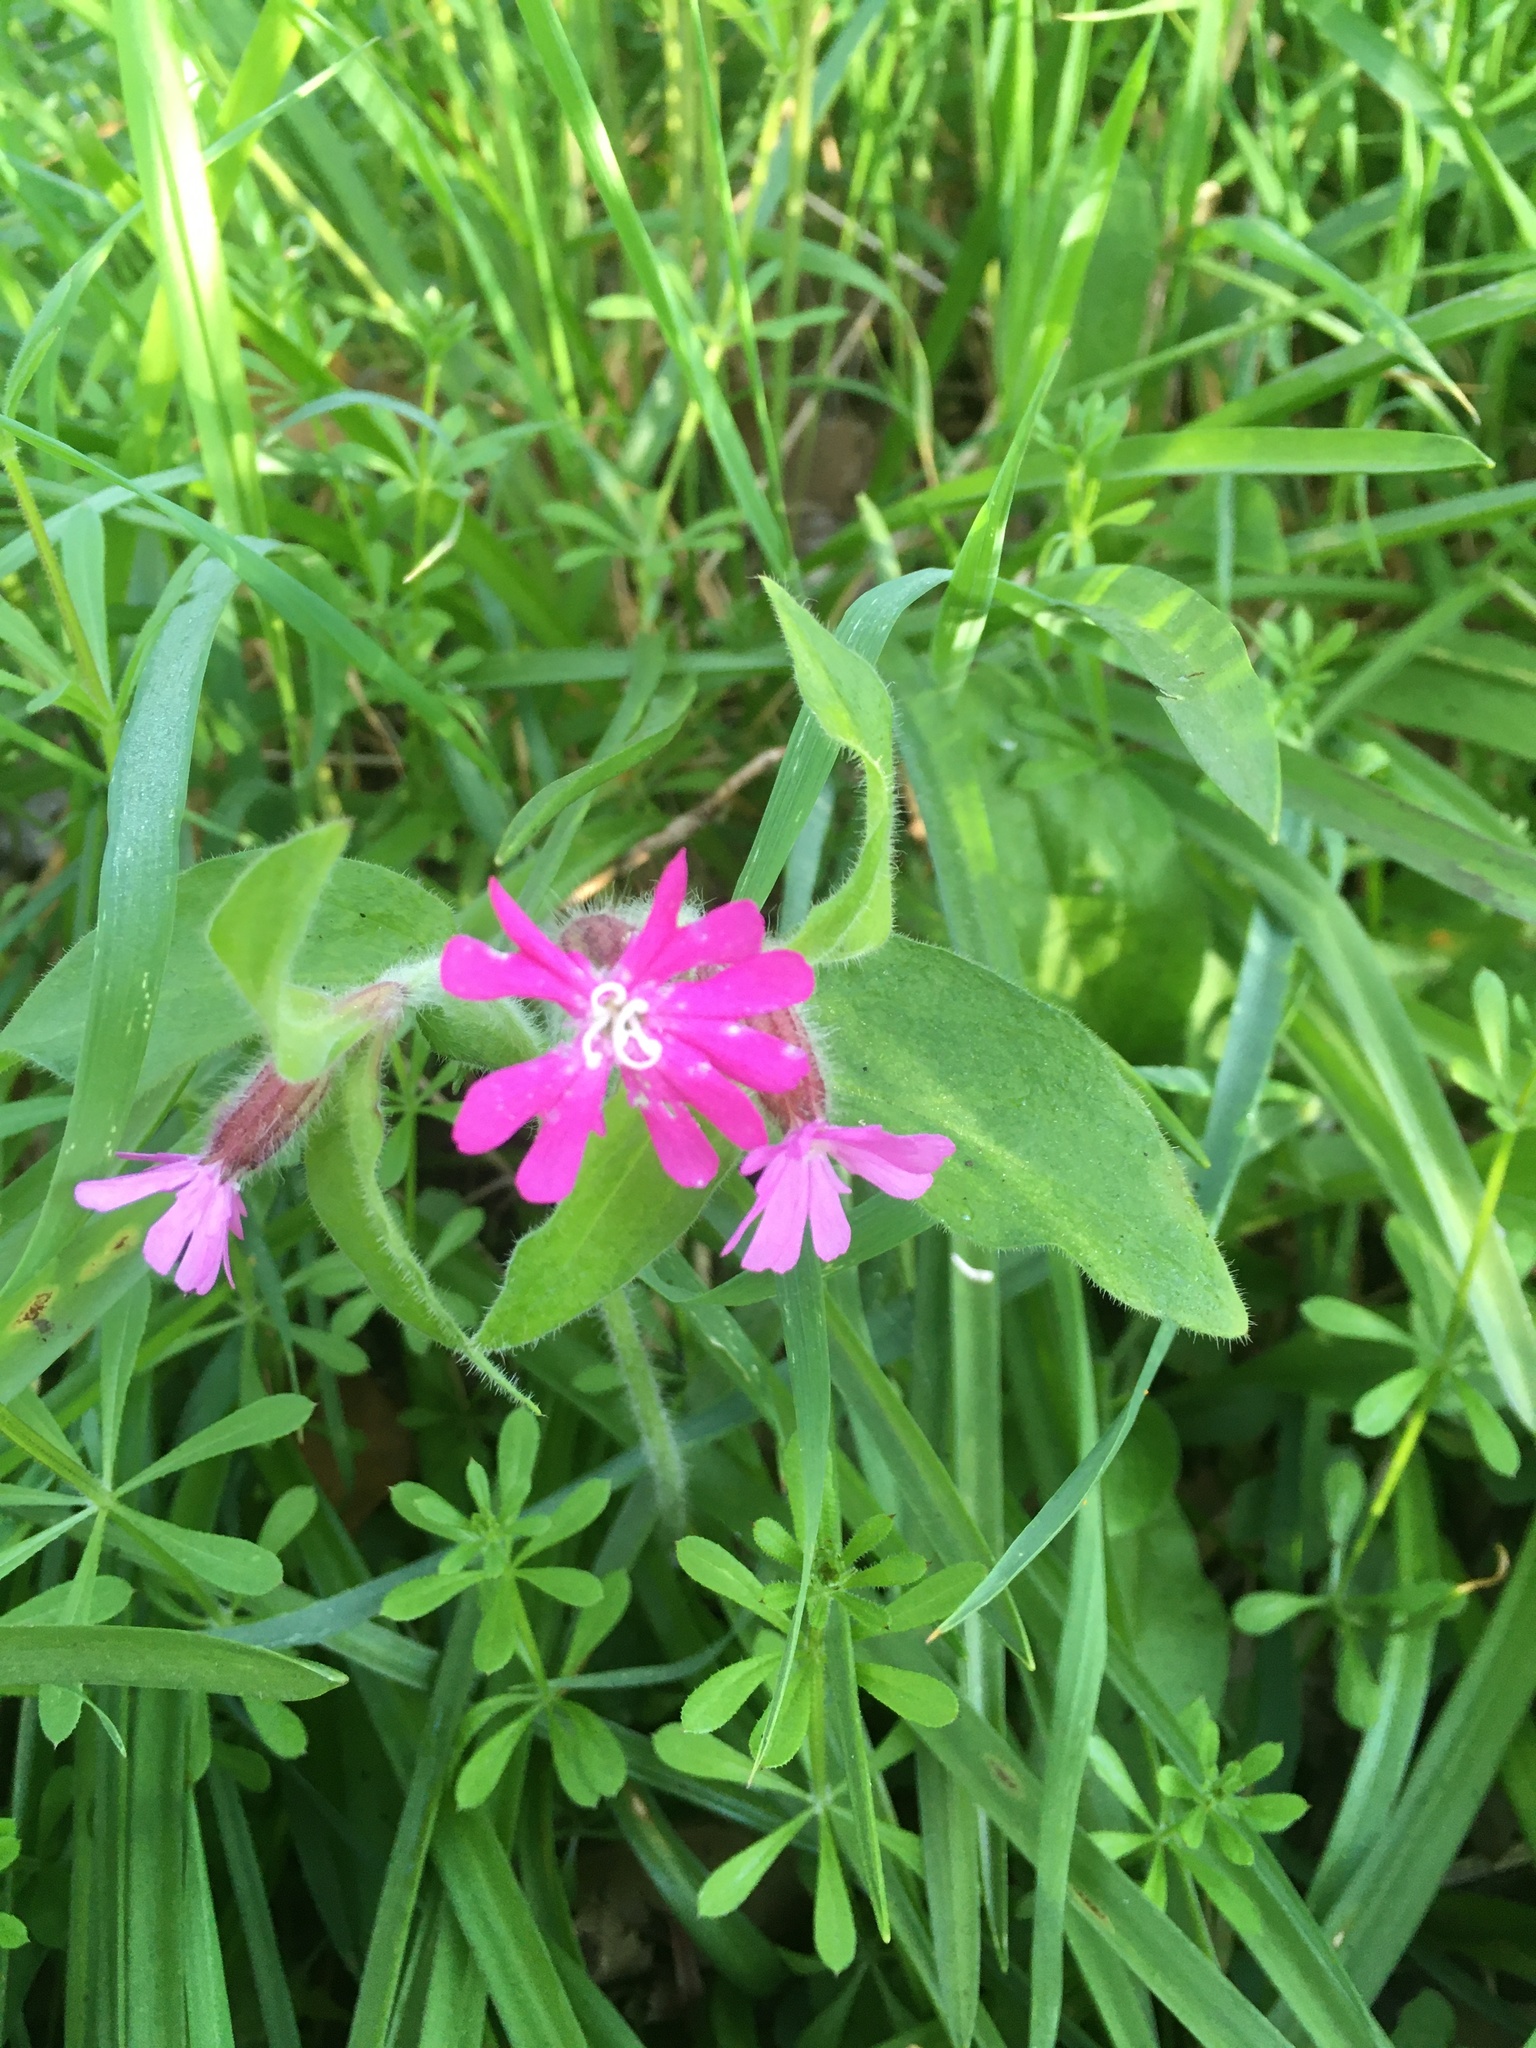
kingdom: Plantae
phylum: Tracheophyta
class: Magnoliopsida
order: Caryophyllales
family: Caryophyllaceae
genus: Silene
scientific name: Silene dioica
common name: Red campion
